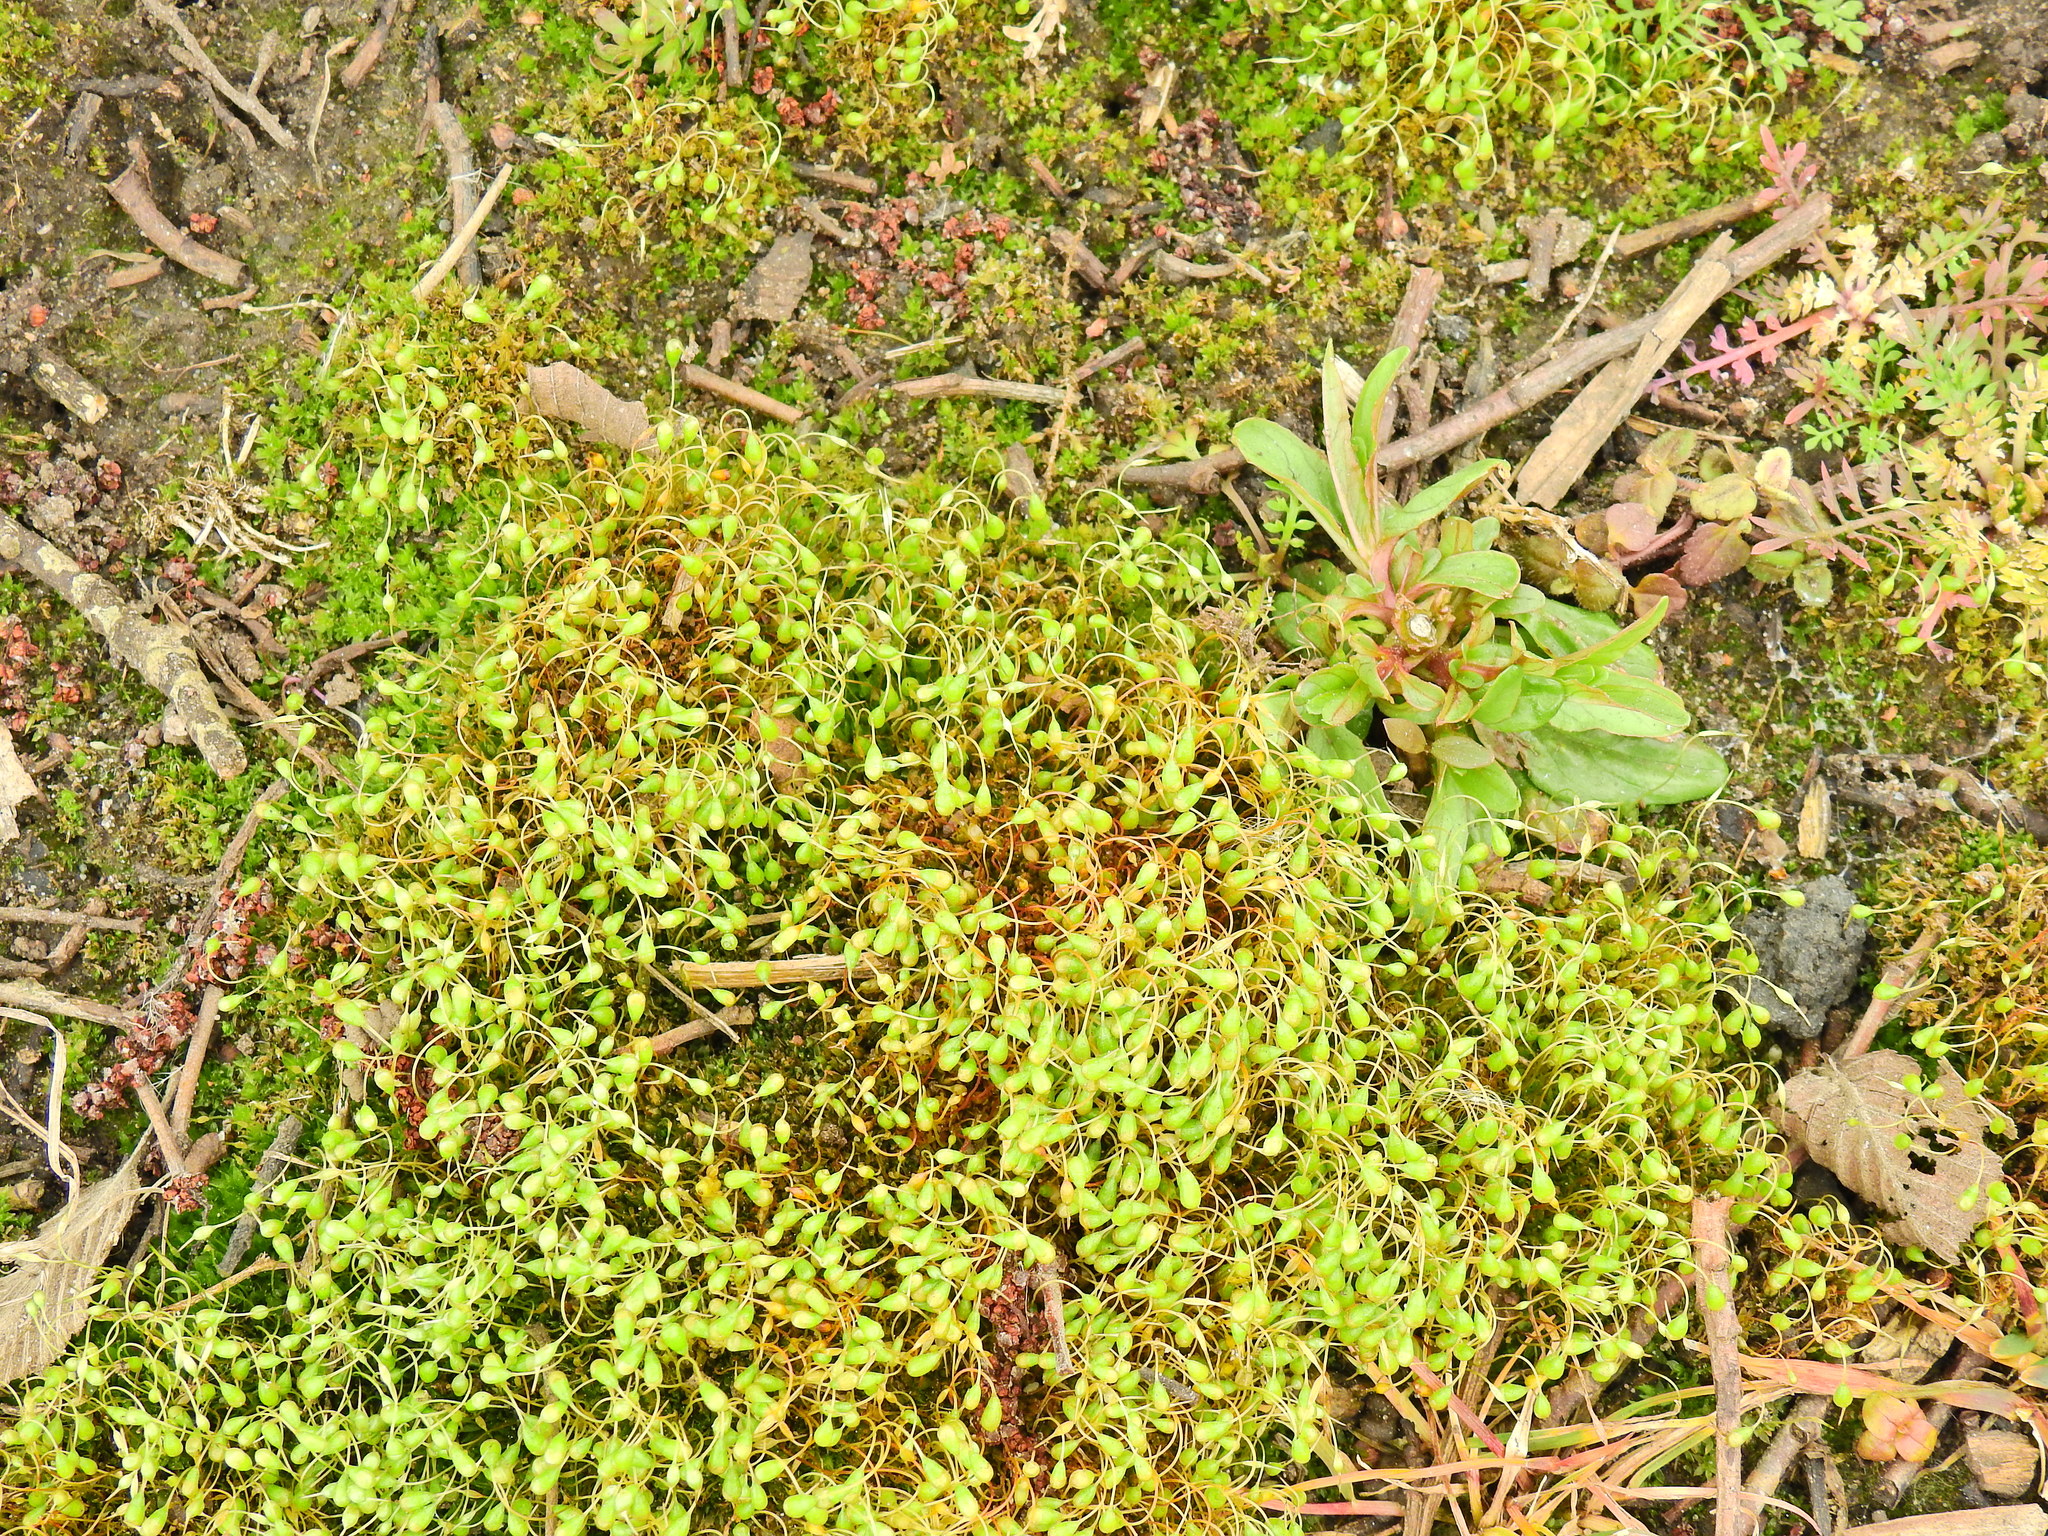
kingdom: Plantae
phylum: Bryophyta
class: Bryopsida
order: Funariales
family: Funariaceae
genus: Funaria
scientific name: Funaria hygrometrica
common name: Common cord moss
